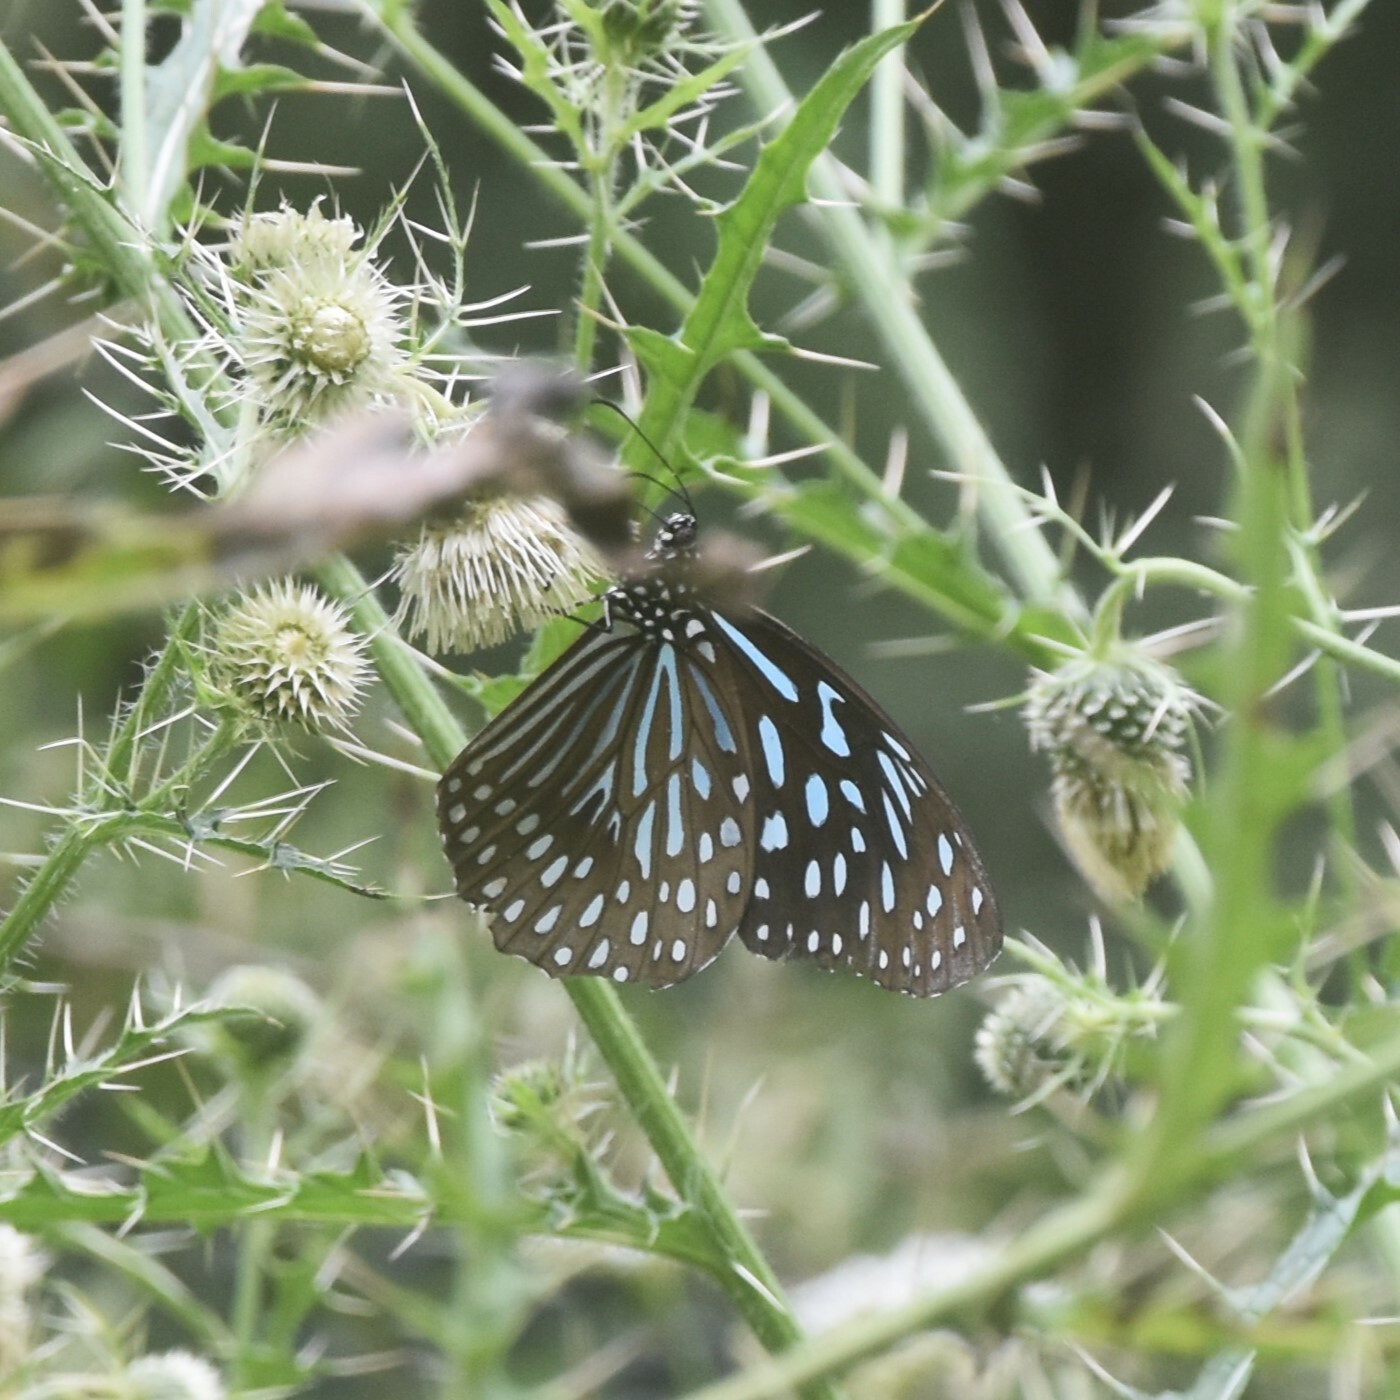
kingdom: Animalia
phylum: Arthropoda
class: Insecta
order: Lepidoptera
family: Nymphalidae
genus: Tirumala
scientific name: Tirumala septentrionis
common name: Dark blue tiger butterfly
